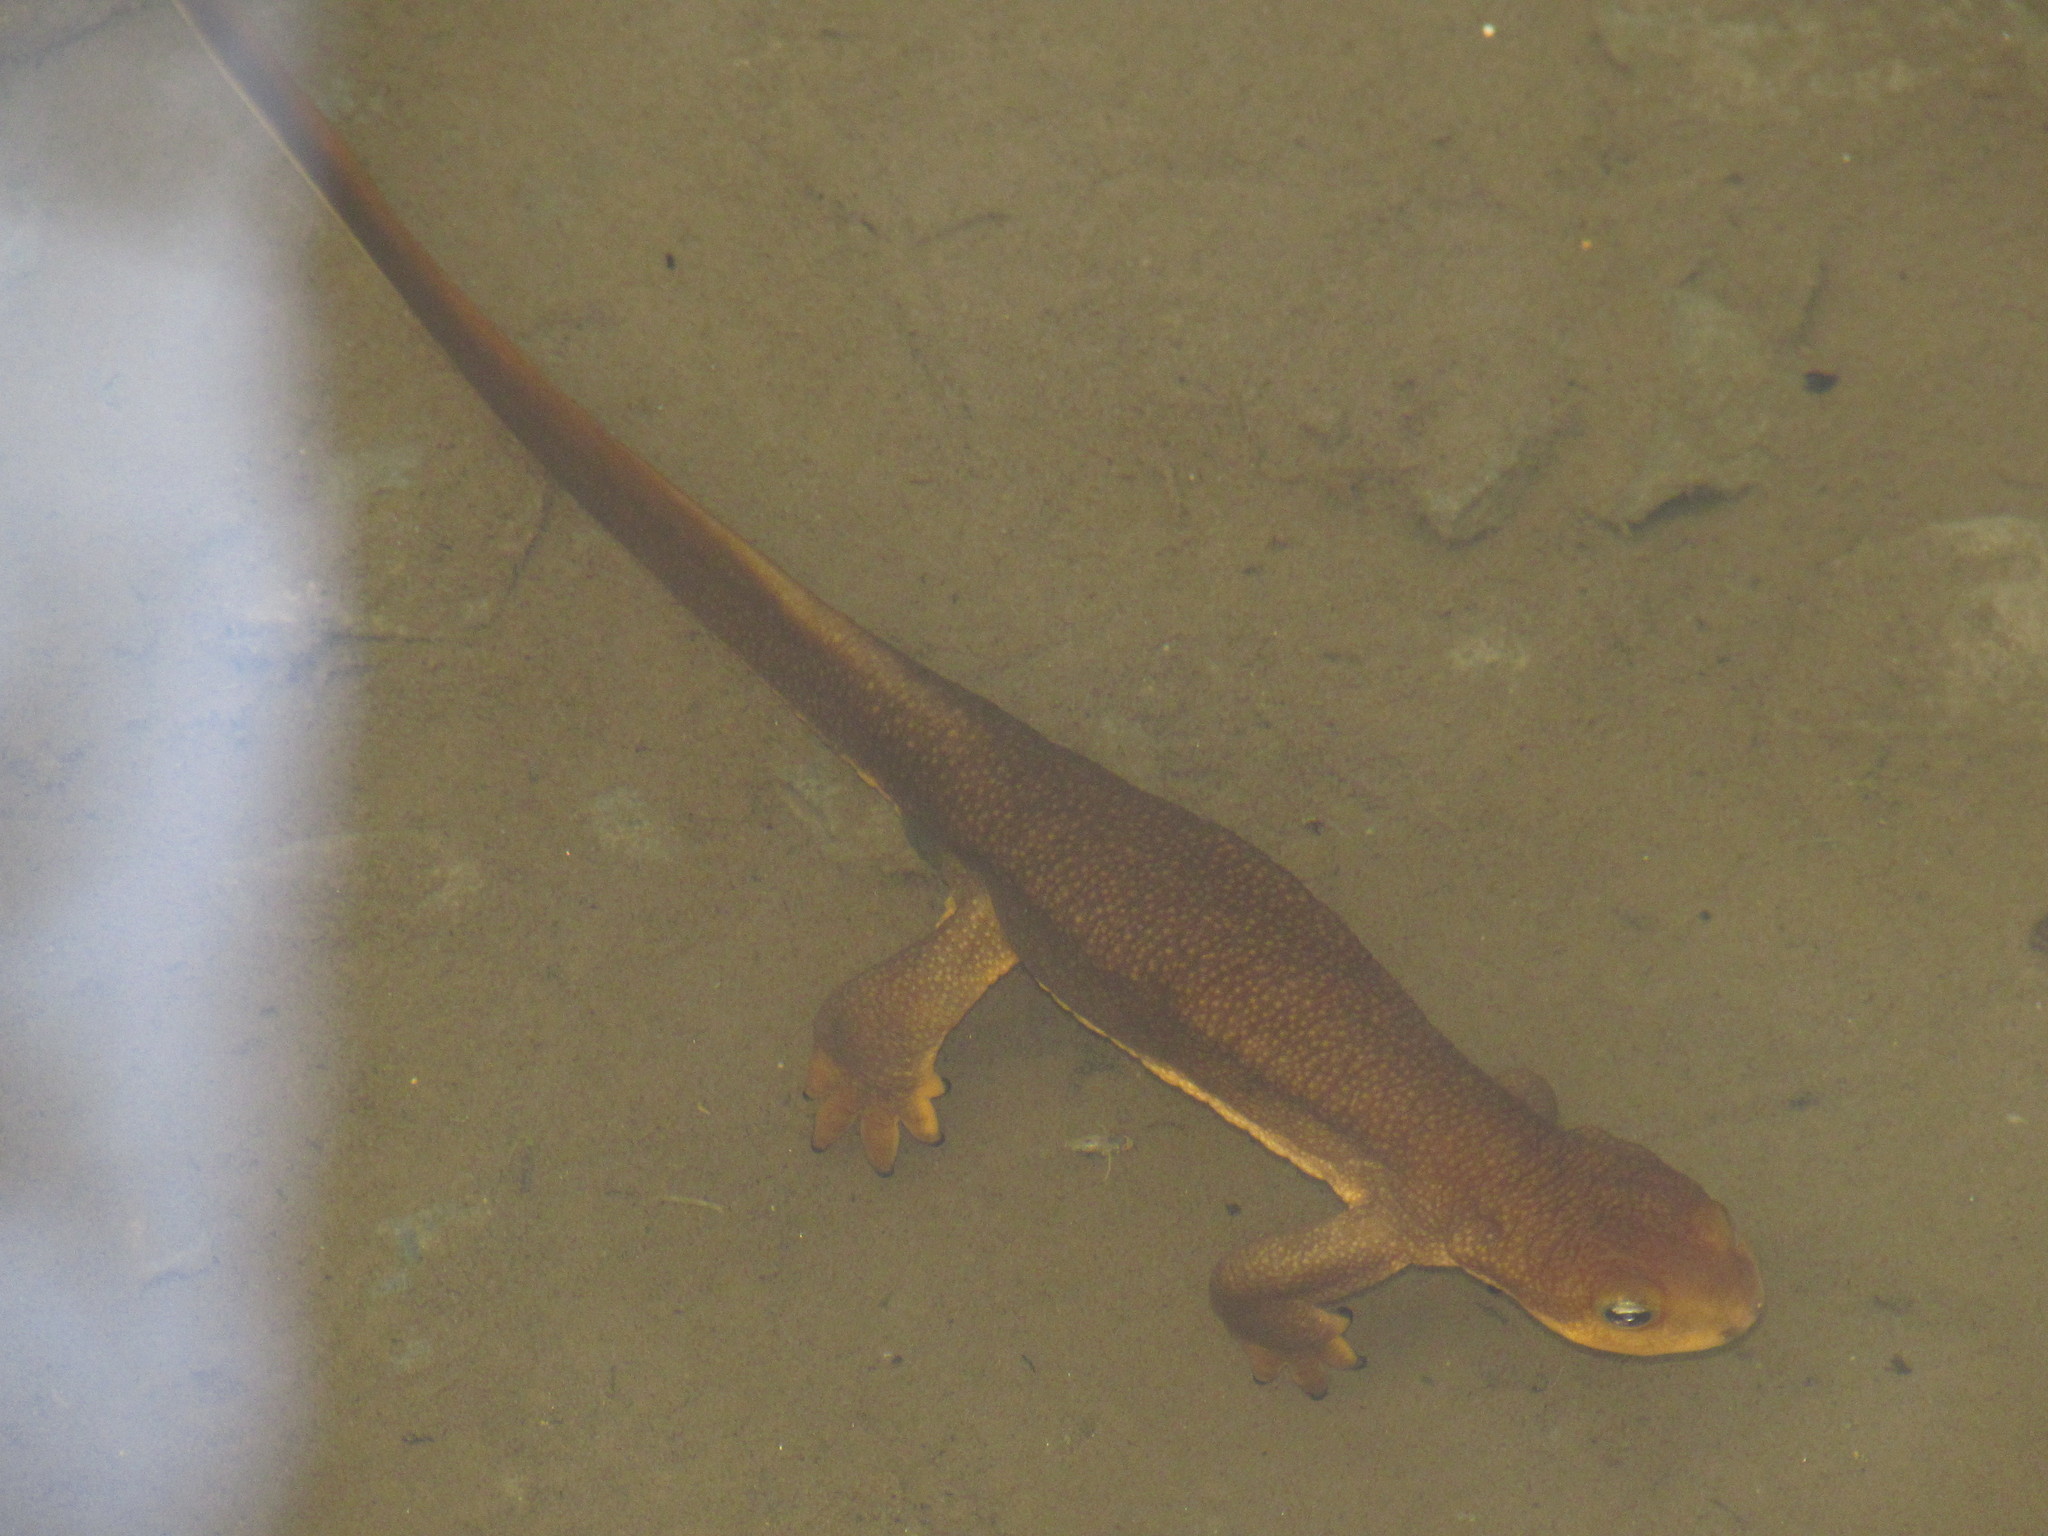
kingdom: Animalia
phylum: Chordata
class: Amphibia
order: Caudata
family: Salamandridae
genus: Taricha
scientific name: Taricha granulosa
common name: Roughskin newt
